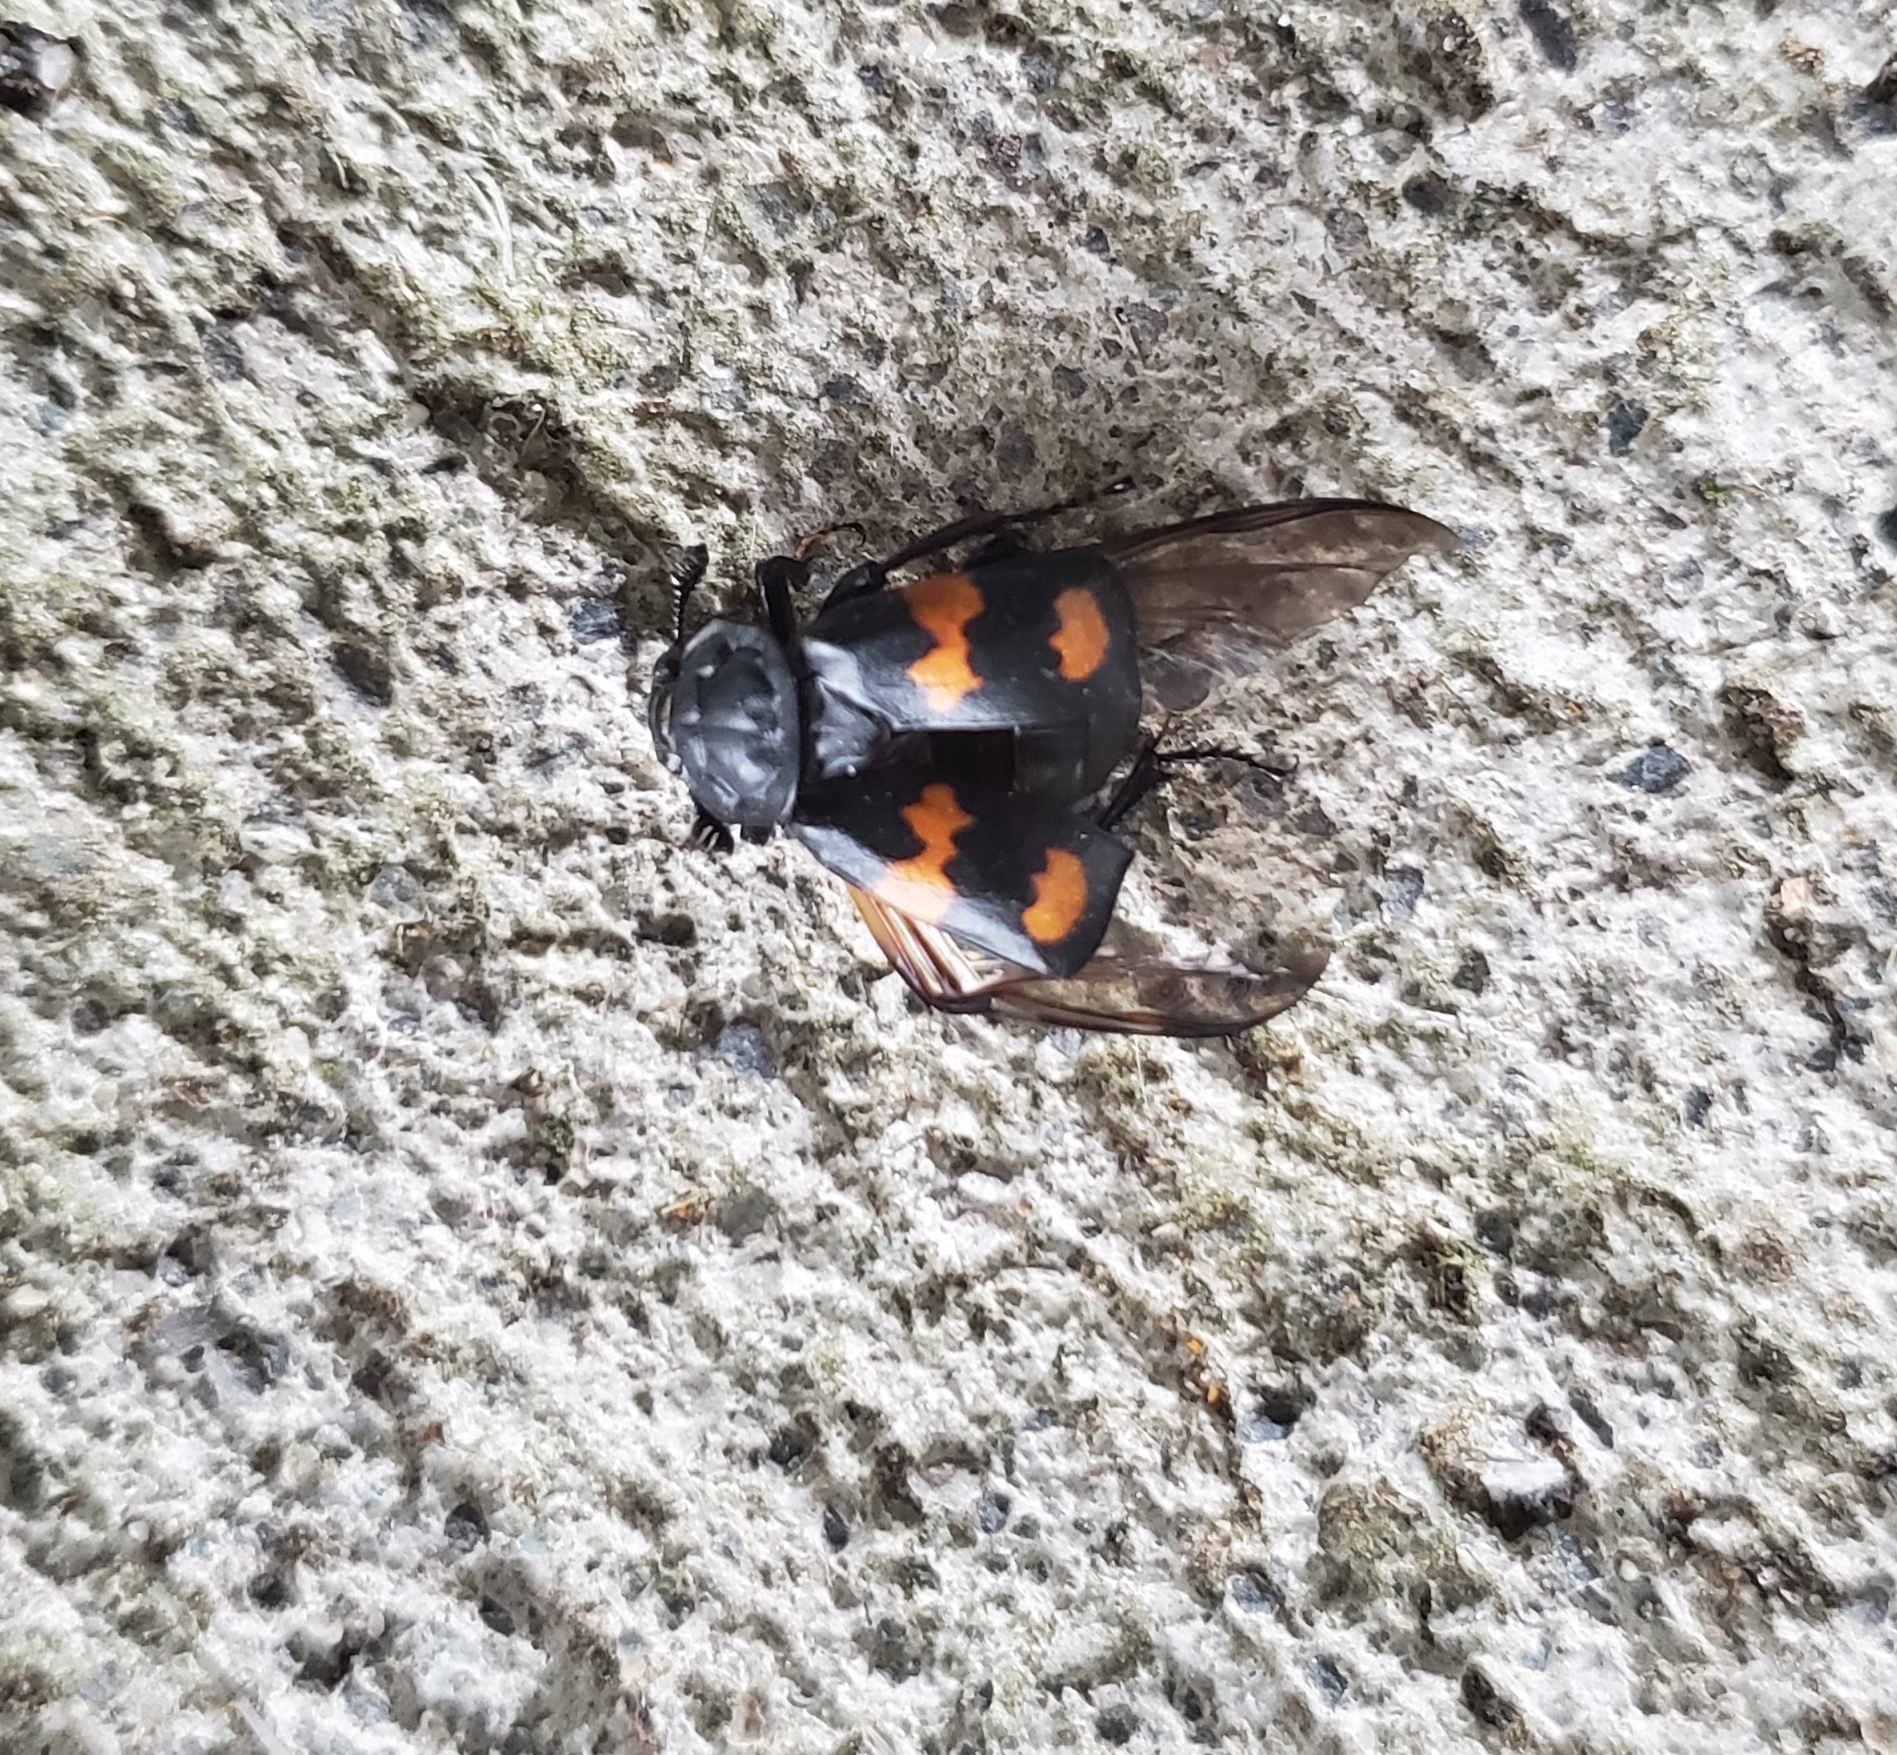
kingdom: Animalia
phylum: Arthropoda
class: Insecta
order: Coleoptera
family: Staphylinidae
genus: Nicrophorus
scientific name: Nicrophorus defodiens
